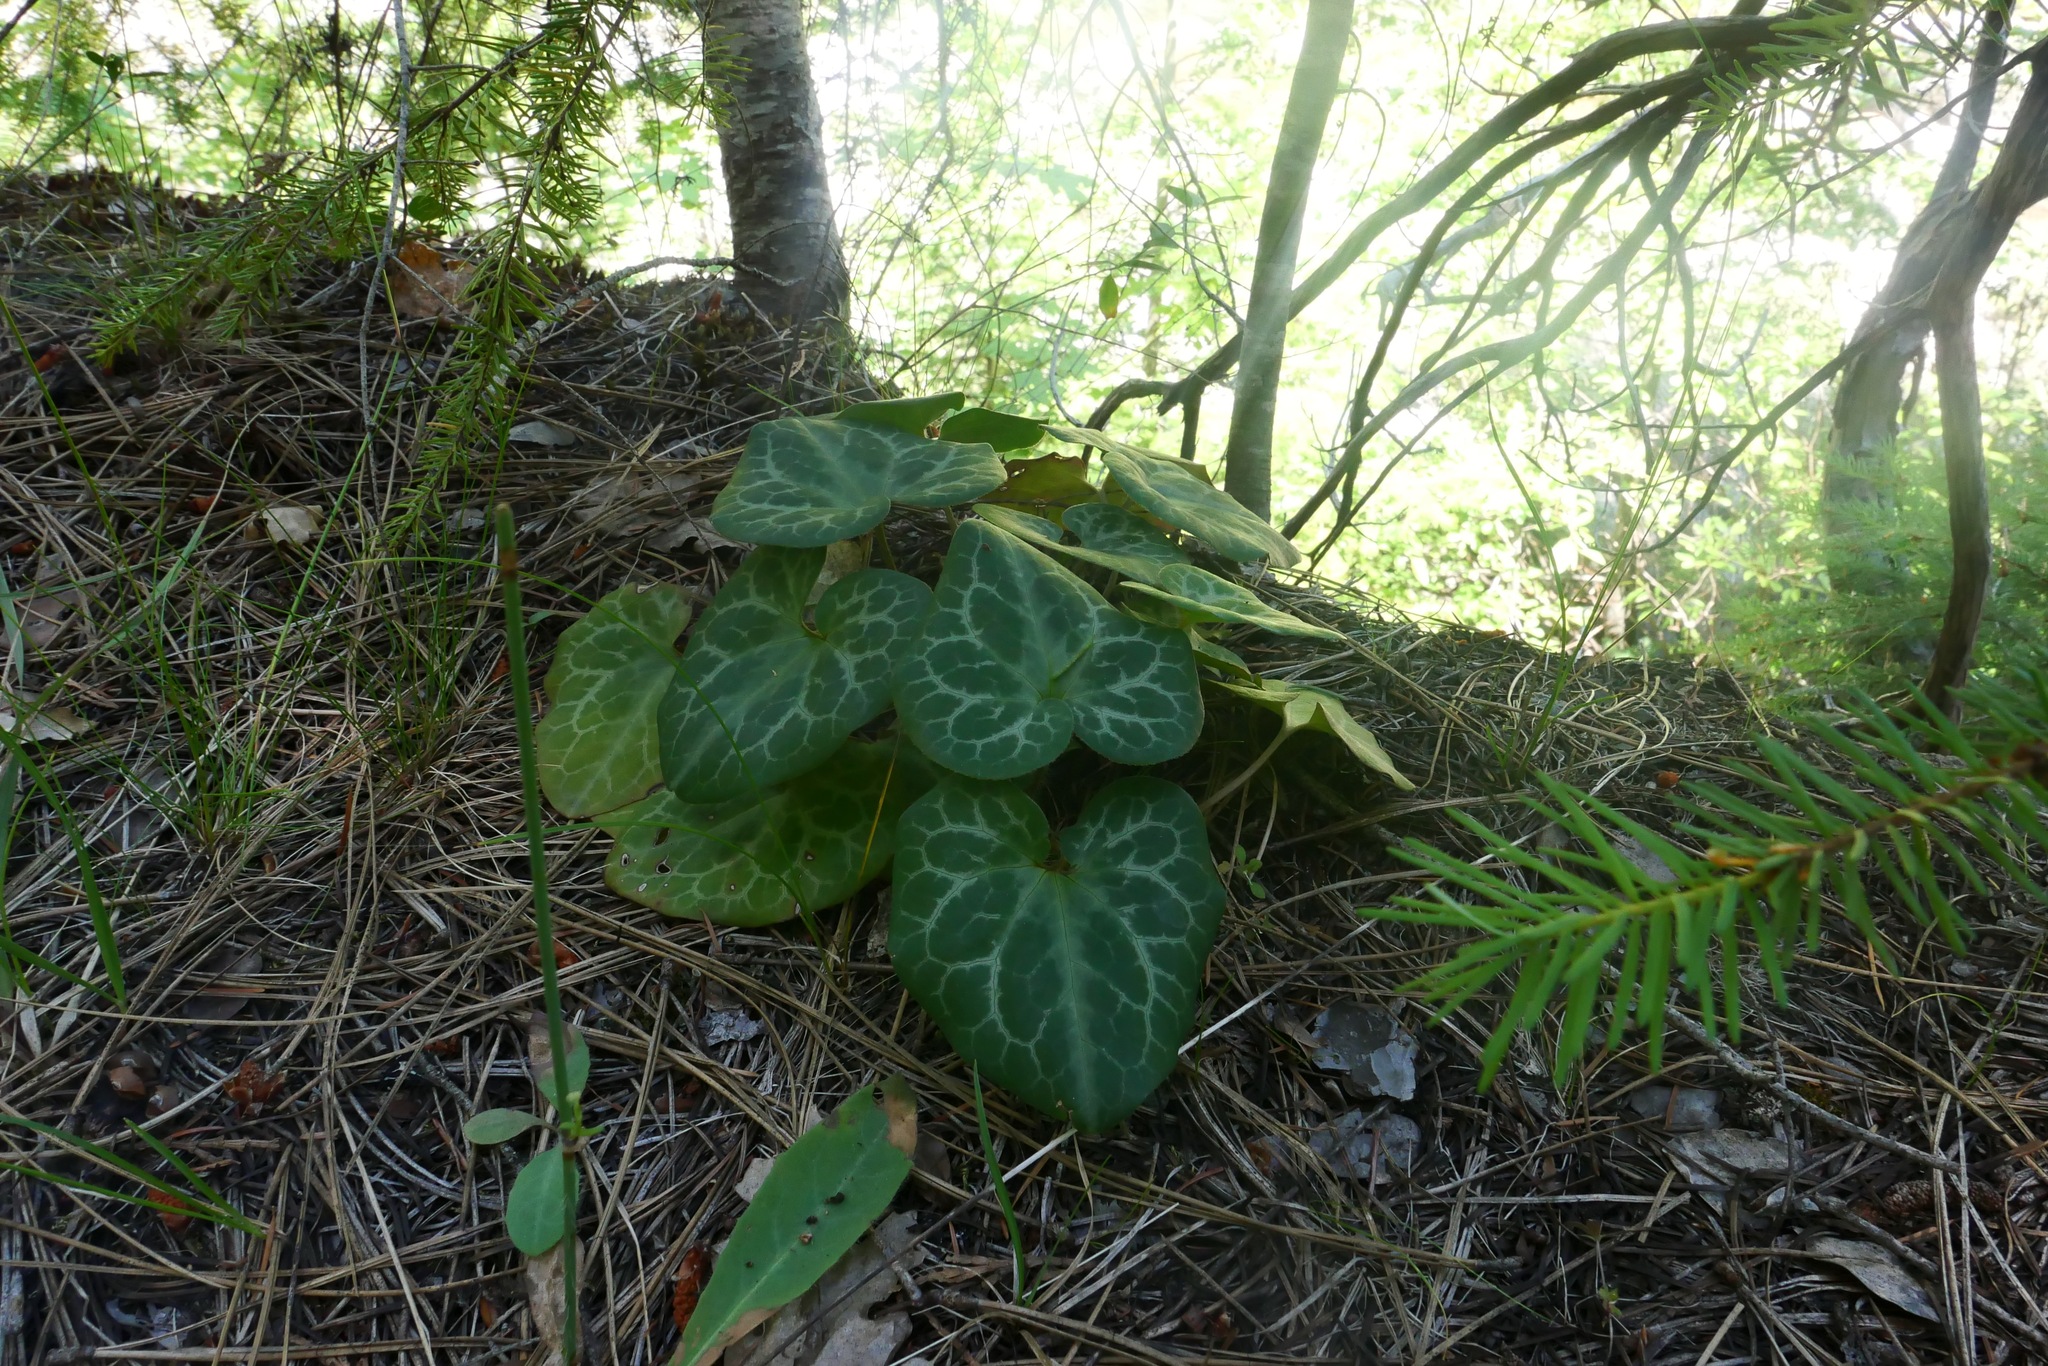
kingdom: Plantae
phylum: Tracheophyta
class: Magnoliopsida
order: Piperales
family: Aristolochiaceae
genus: Asarum
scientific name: Asarum hartwegii
